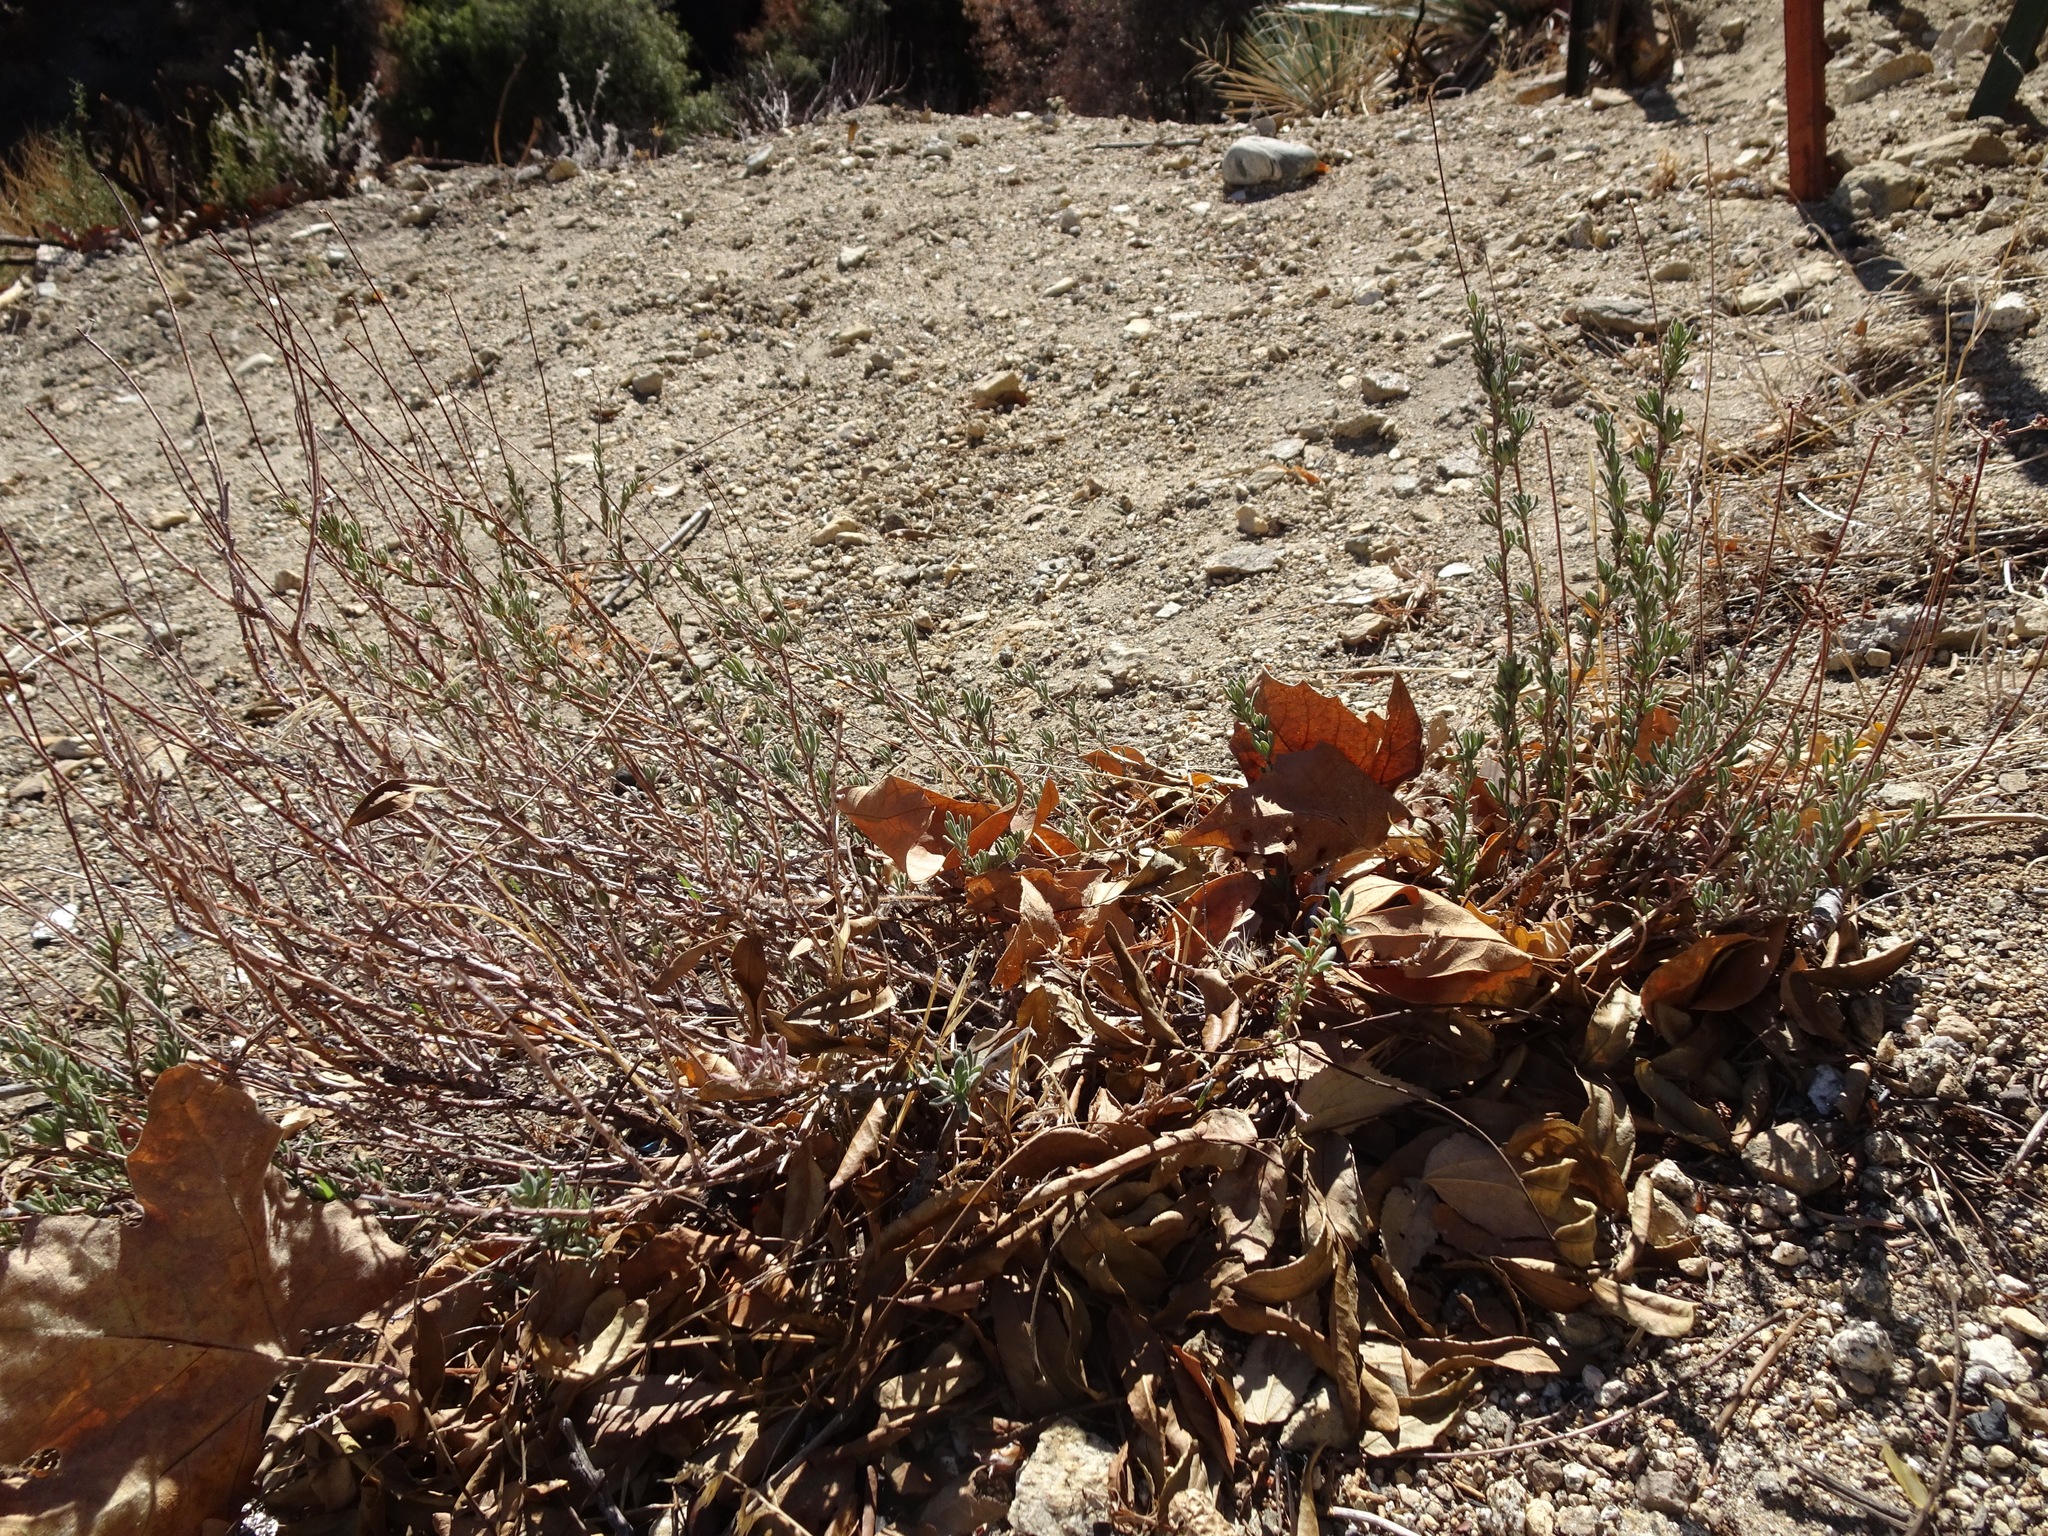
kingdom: Plantae
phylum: Tracheophyta
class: Magnoliopsida
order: Caryophyllales
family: Polygonaceae
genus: Eriogonum
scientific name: Eriogonum fasciculatum
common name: California wild buckwheat
